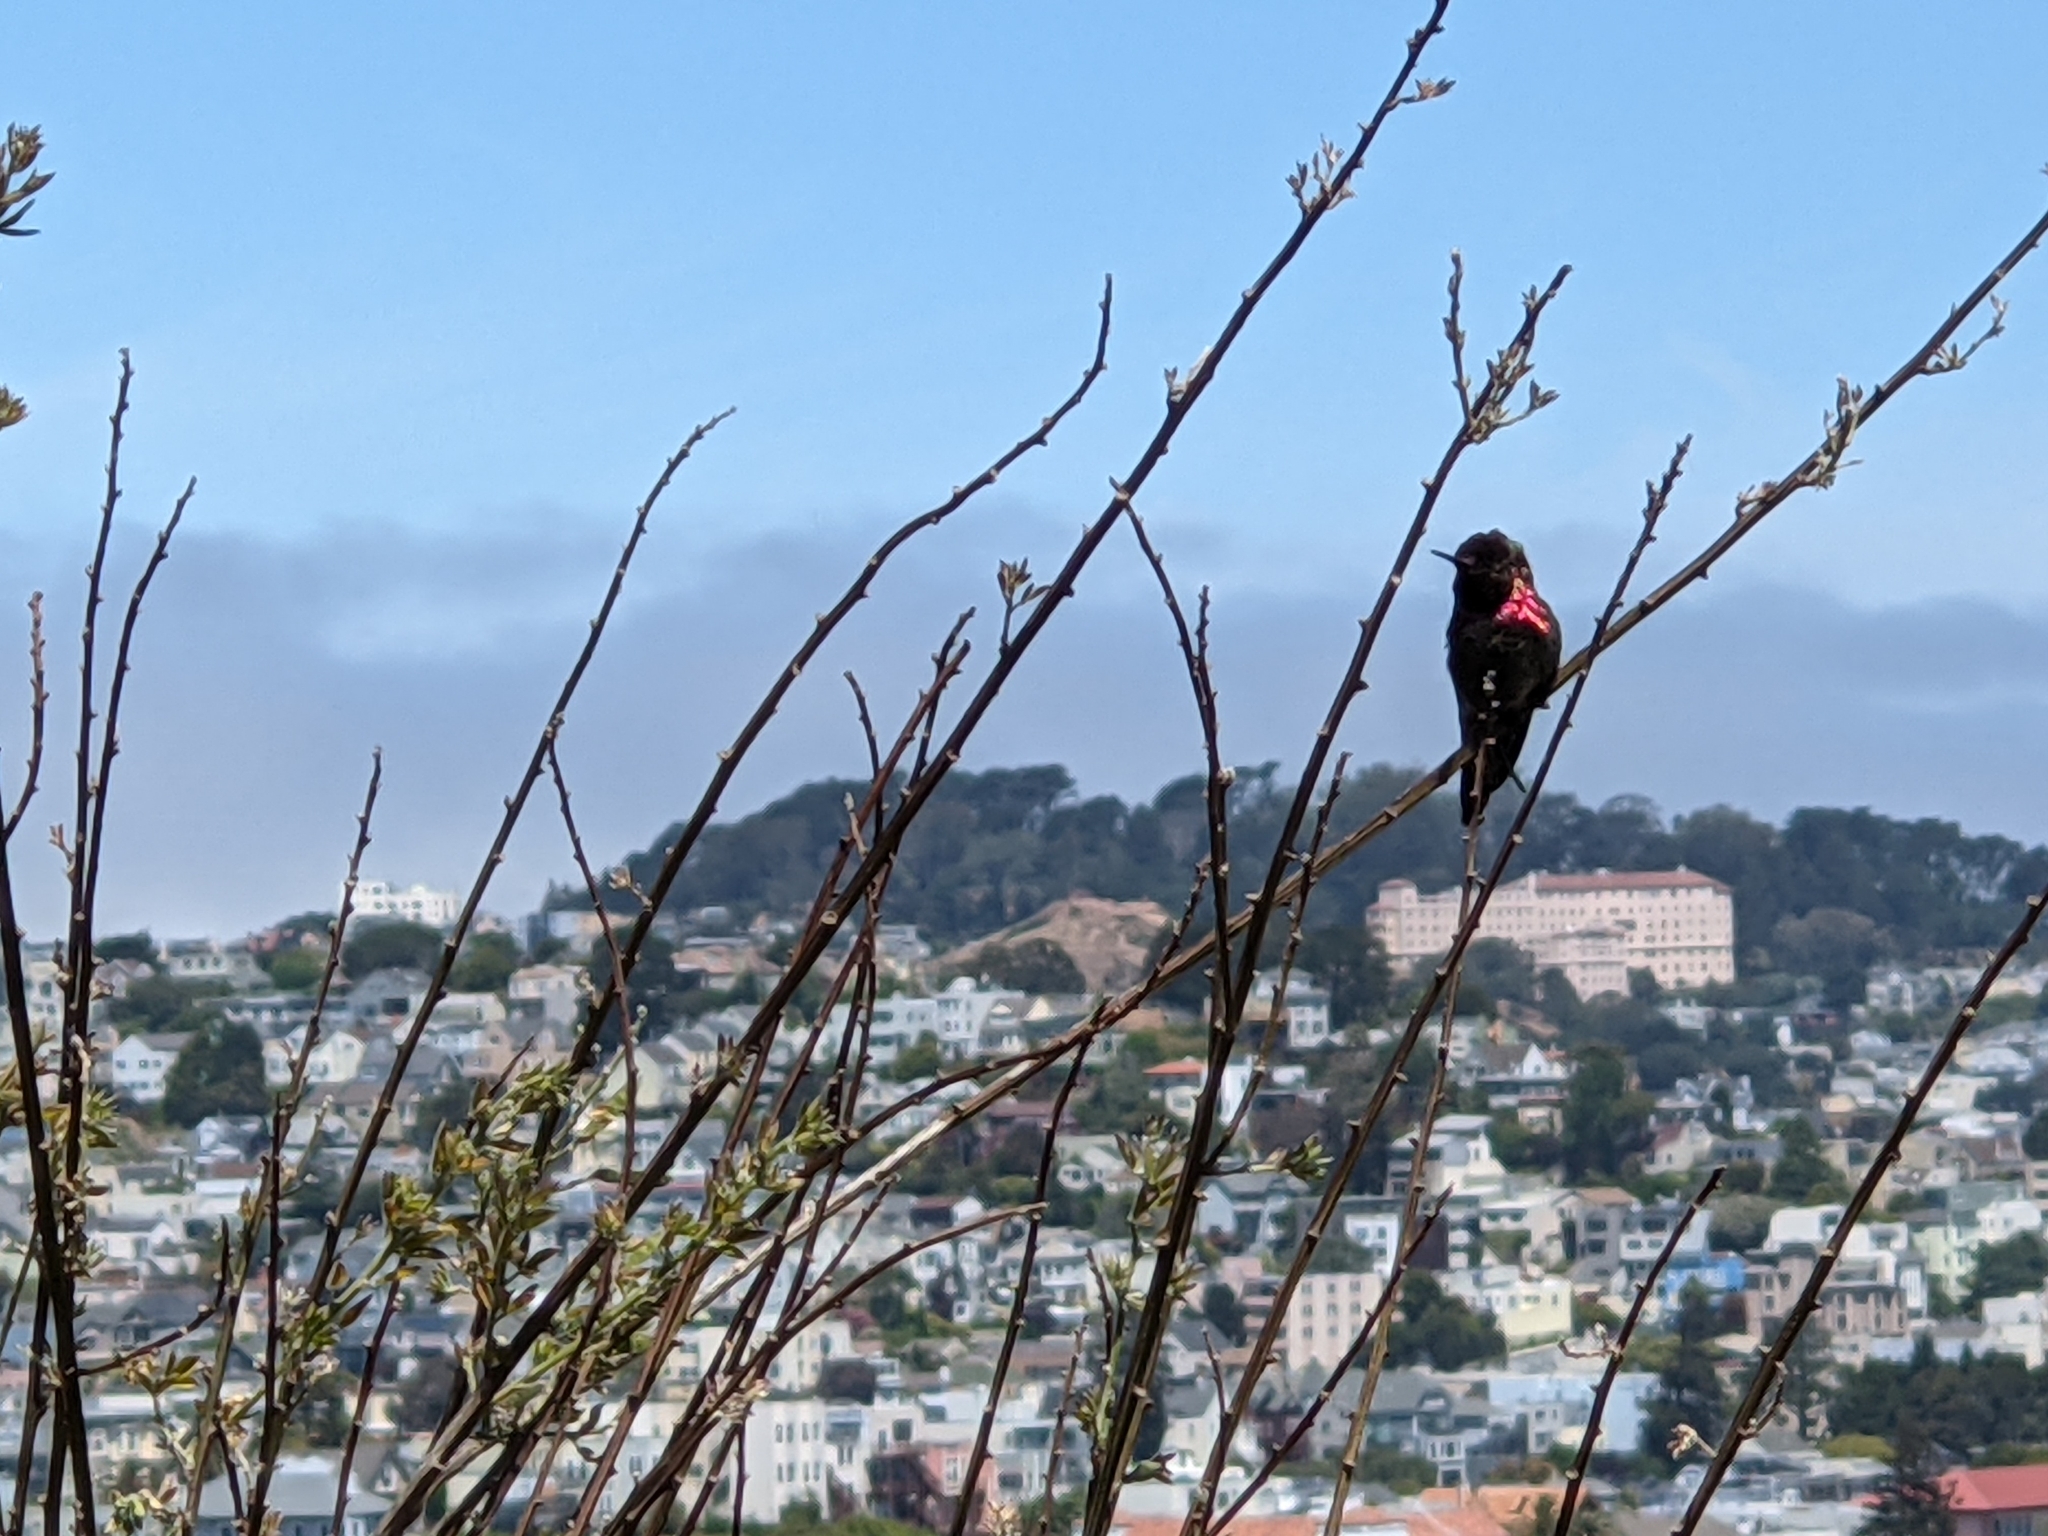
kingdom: Animalia
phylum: Chordata
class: Aves
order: Apodiformes
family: Trochilidae
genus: Calypte
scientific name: Calypte anna
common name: Anna's hummingbird
